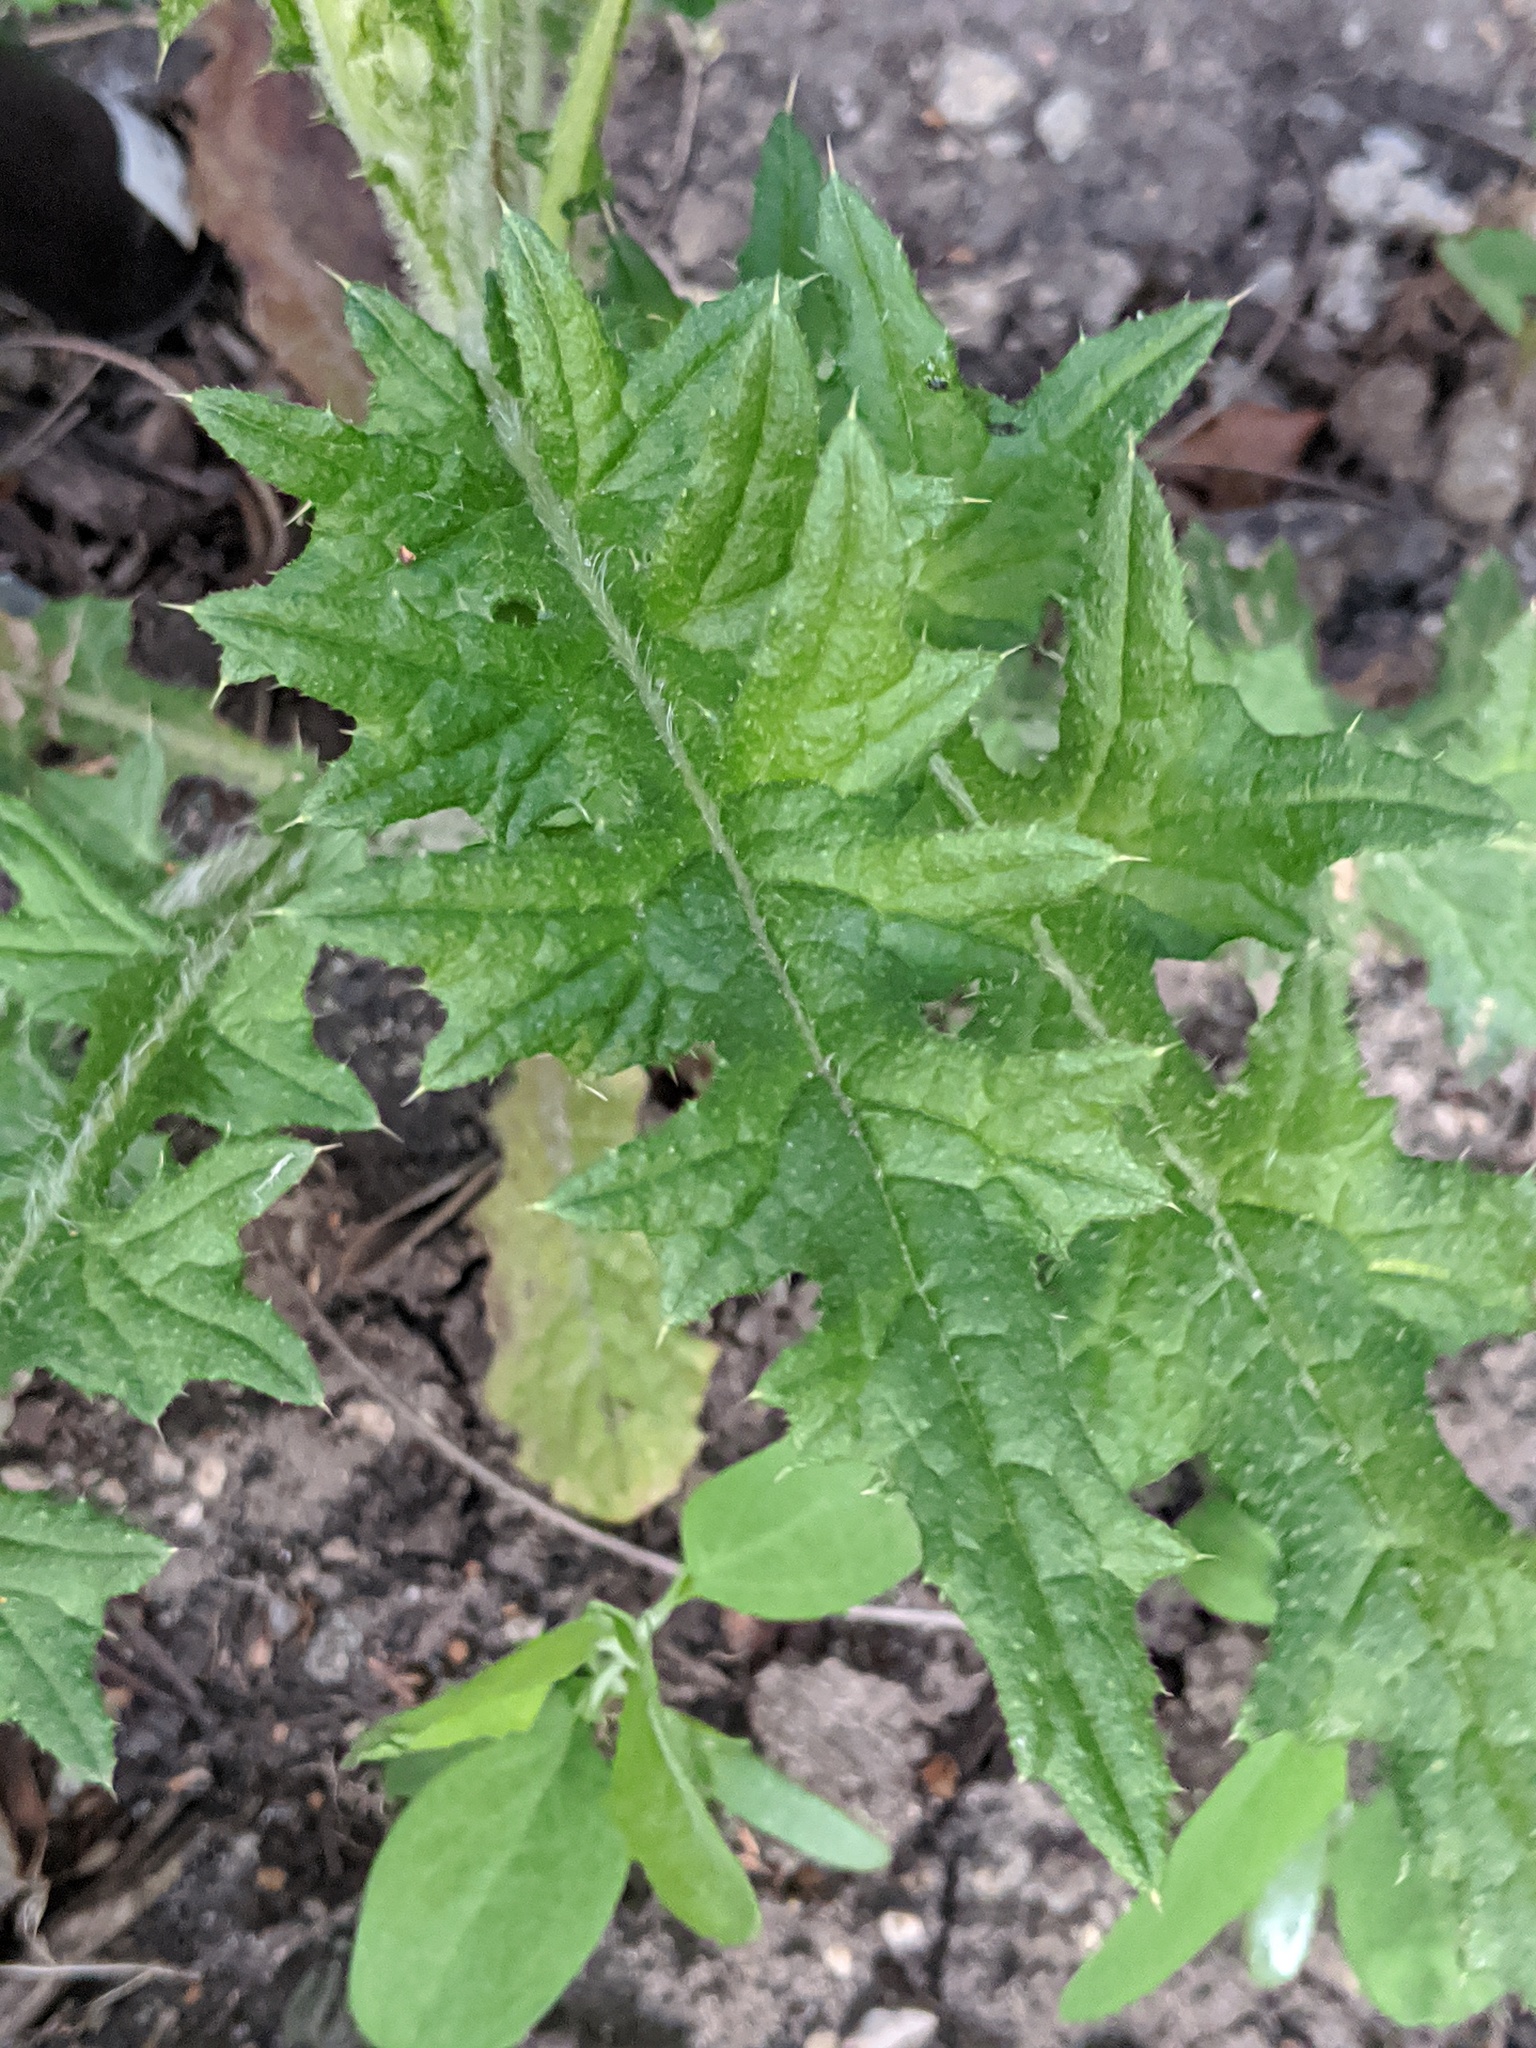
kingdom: Plantae
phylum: Tracheophyta
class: Magnoliopsida
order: Asterales
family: Asteraceae
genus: Cirsium
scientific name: Cirsium vulgare
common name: Bull thistle
